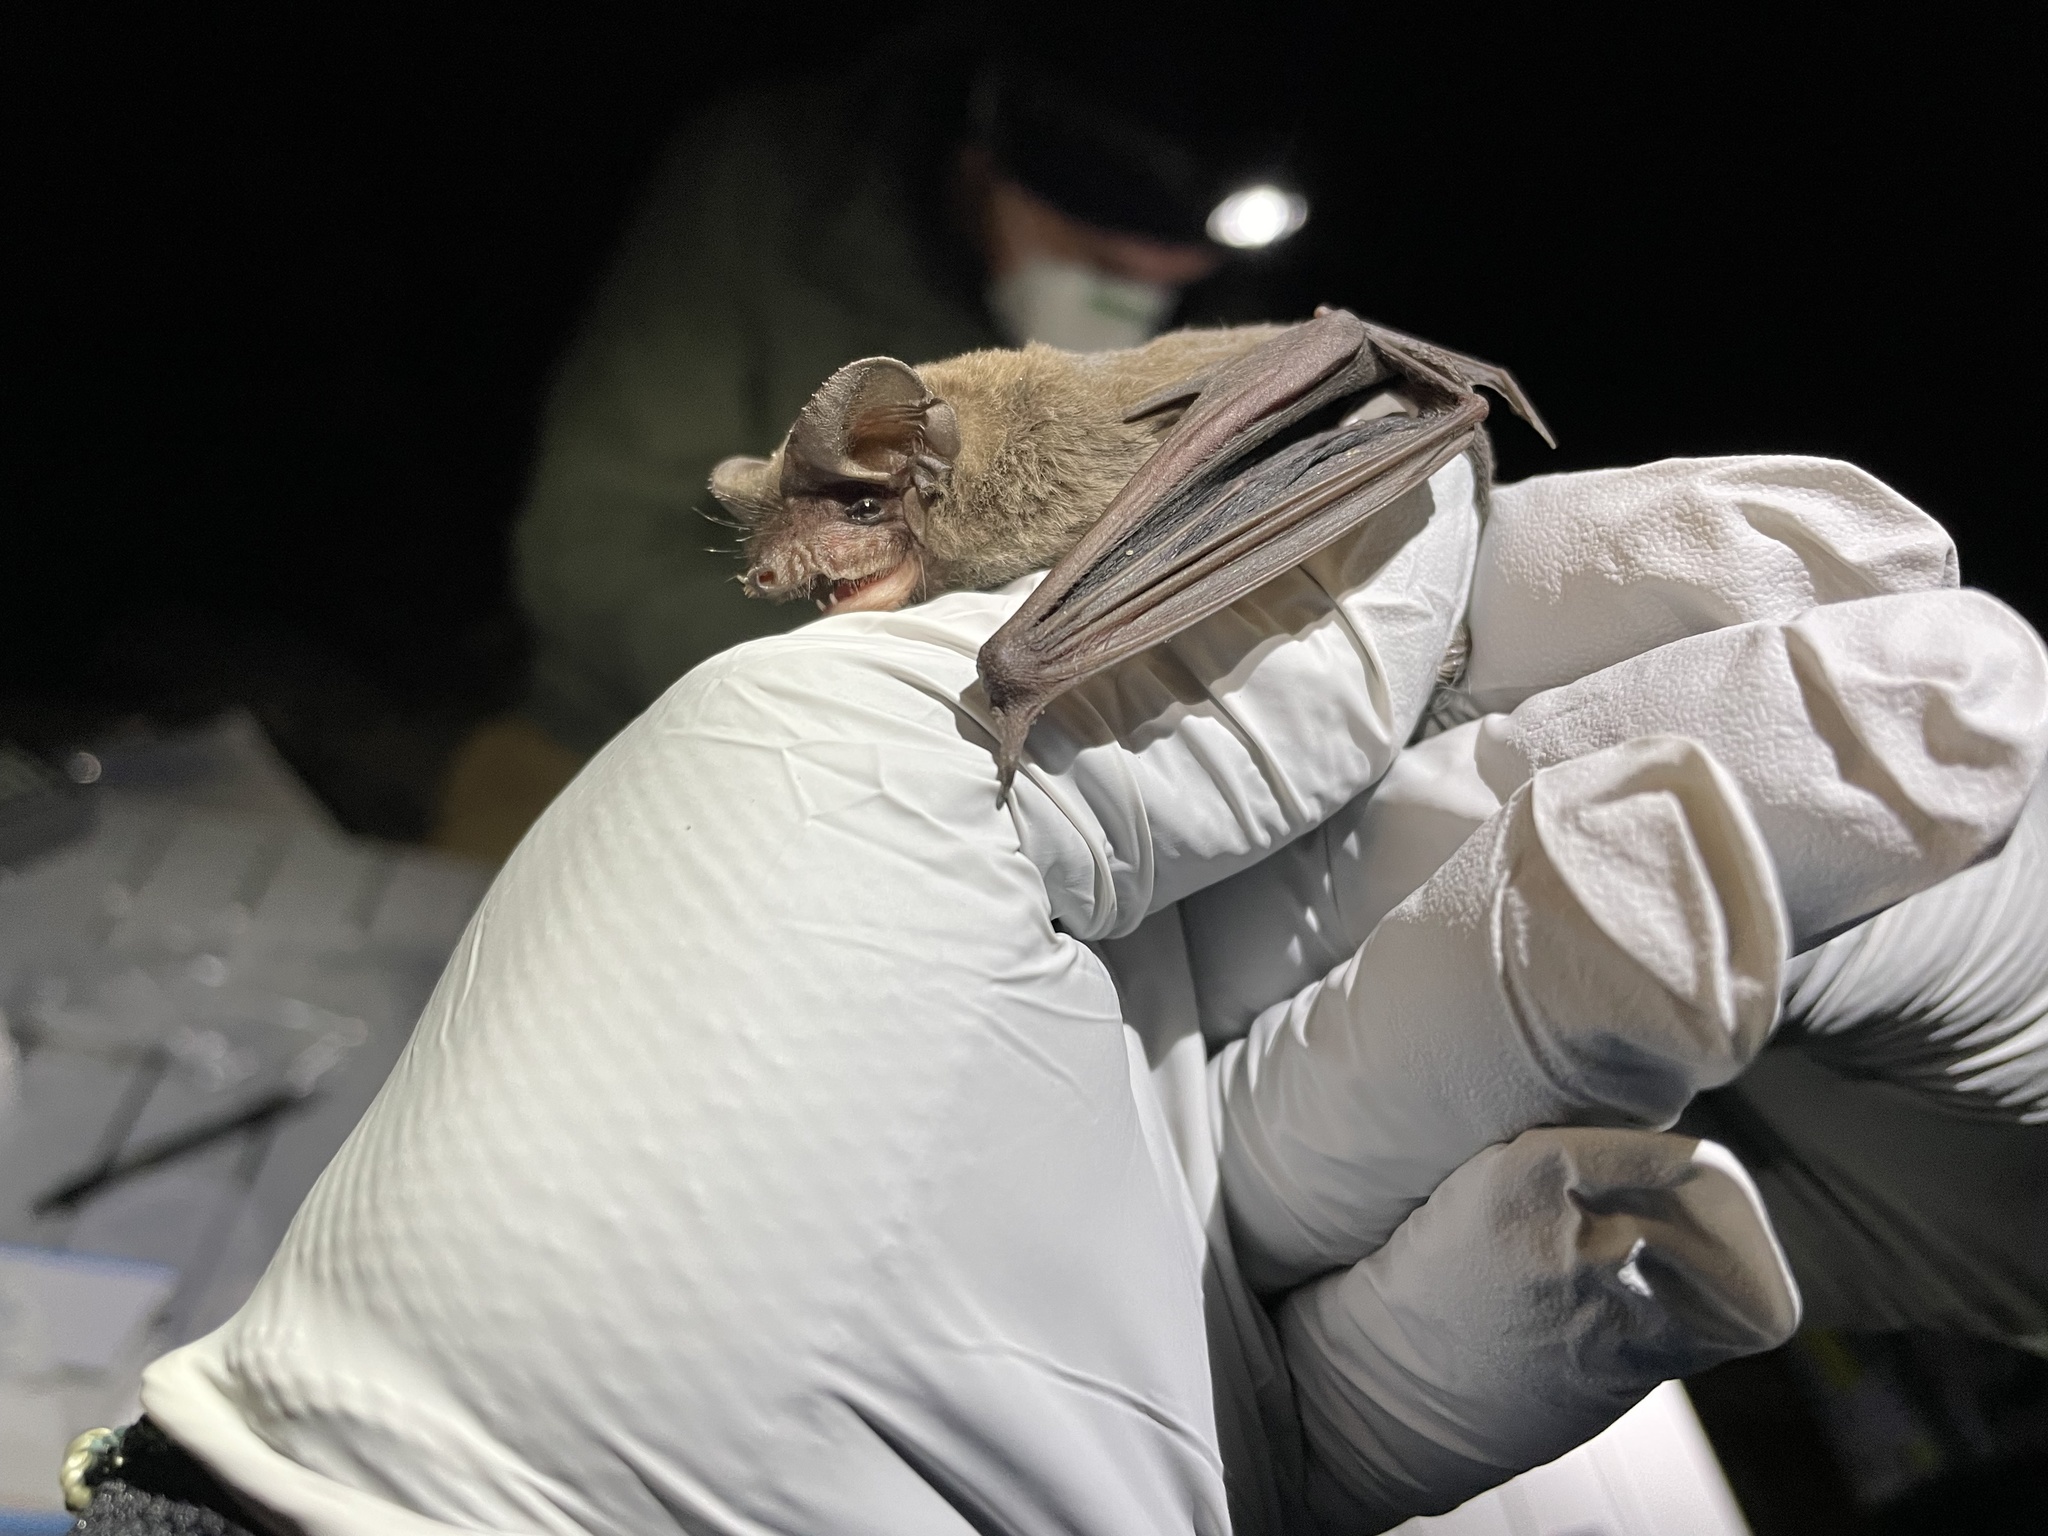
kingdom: Animalia
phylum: Chordata
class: Mammalia
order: Chiroptera
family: Molossidae
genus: Tadarida
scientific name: Tadarida brasiliensis
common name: Mexican free-tailed bat
